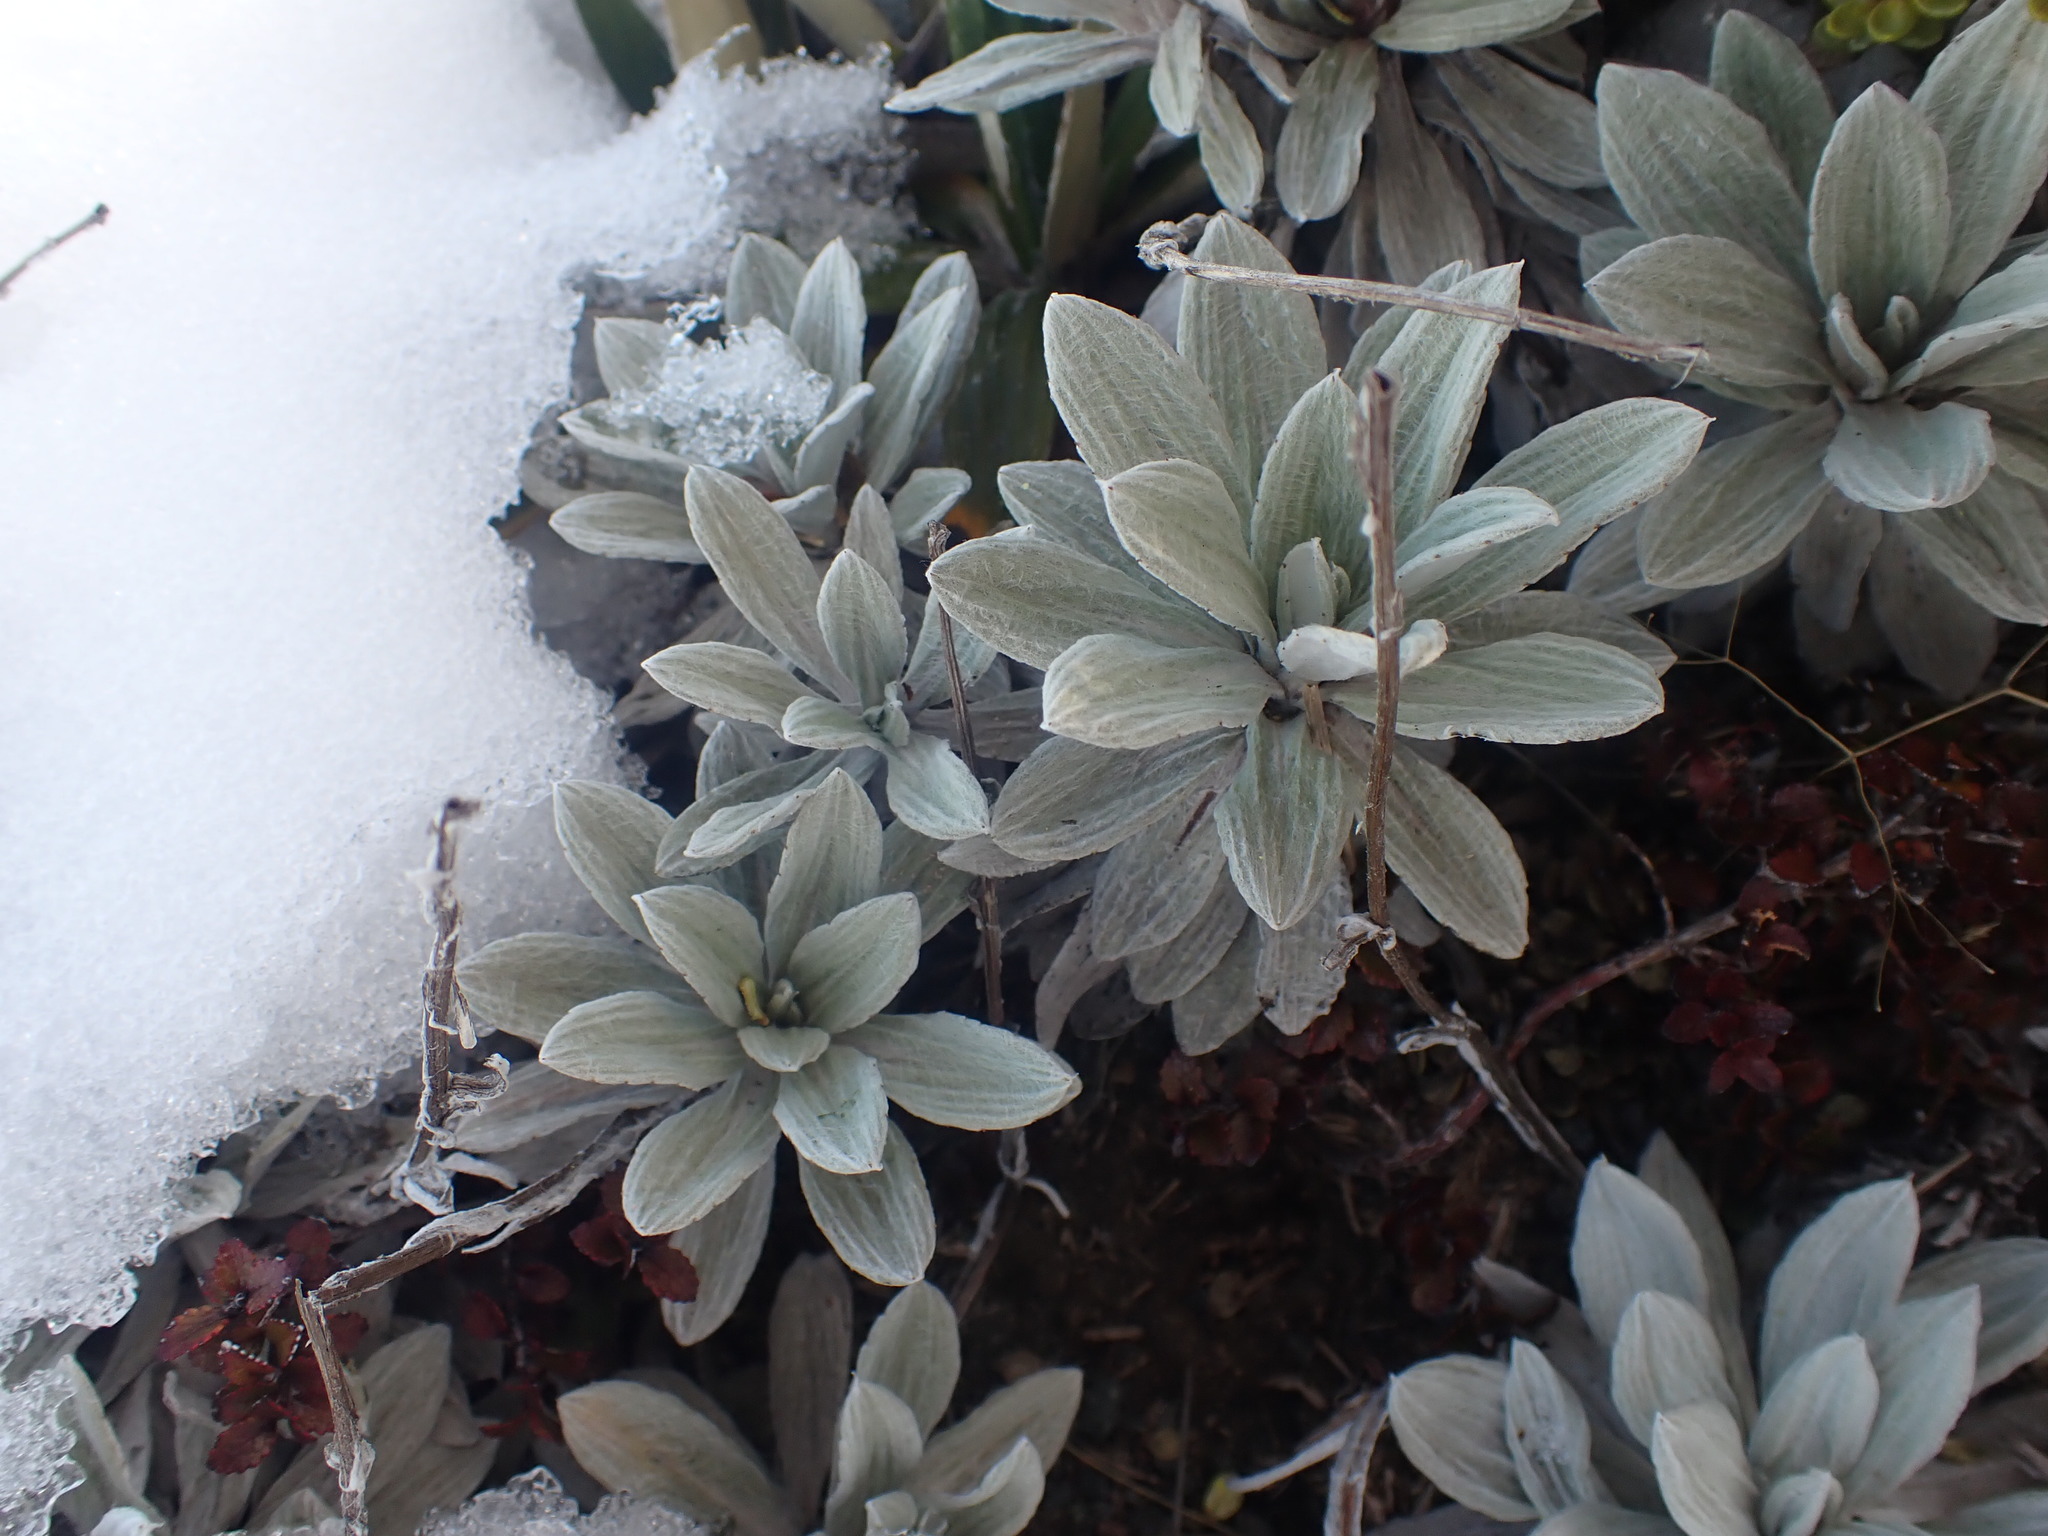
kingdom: Plantae
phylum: Tracheophyta
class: Magnoliopsida
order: Asterales
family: Asteraceae
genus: Celmisia
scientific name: Celmisia incana
